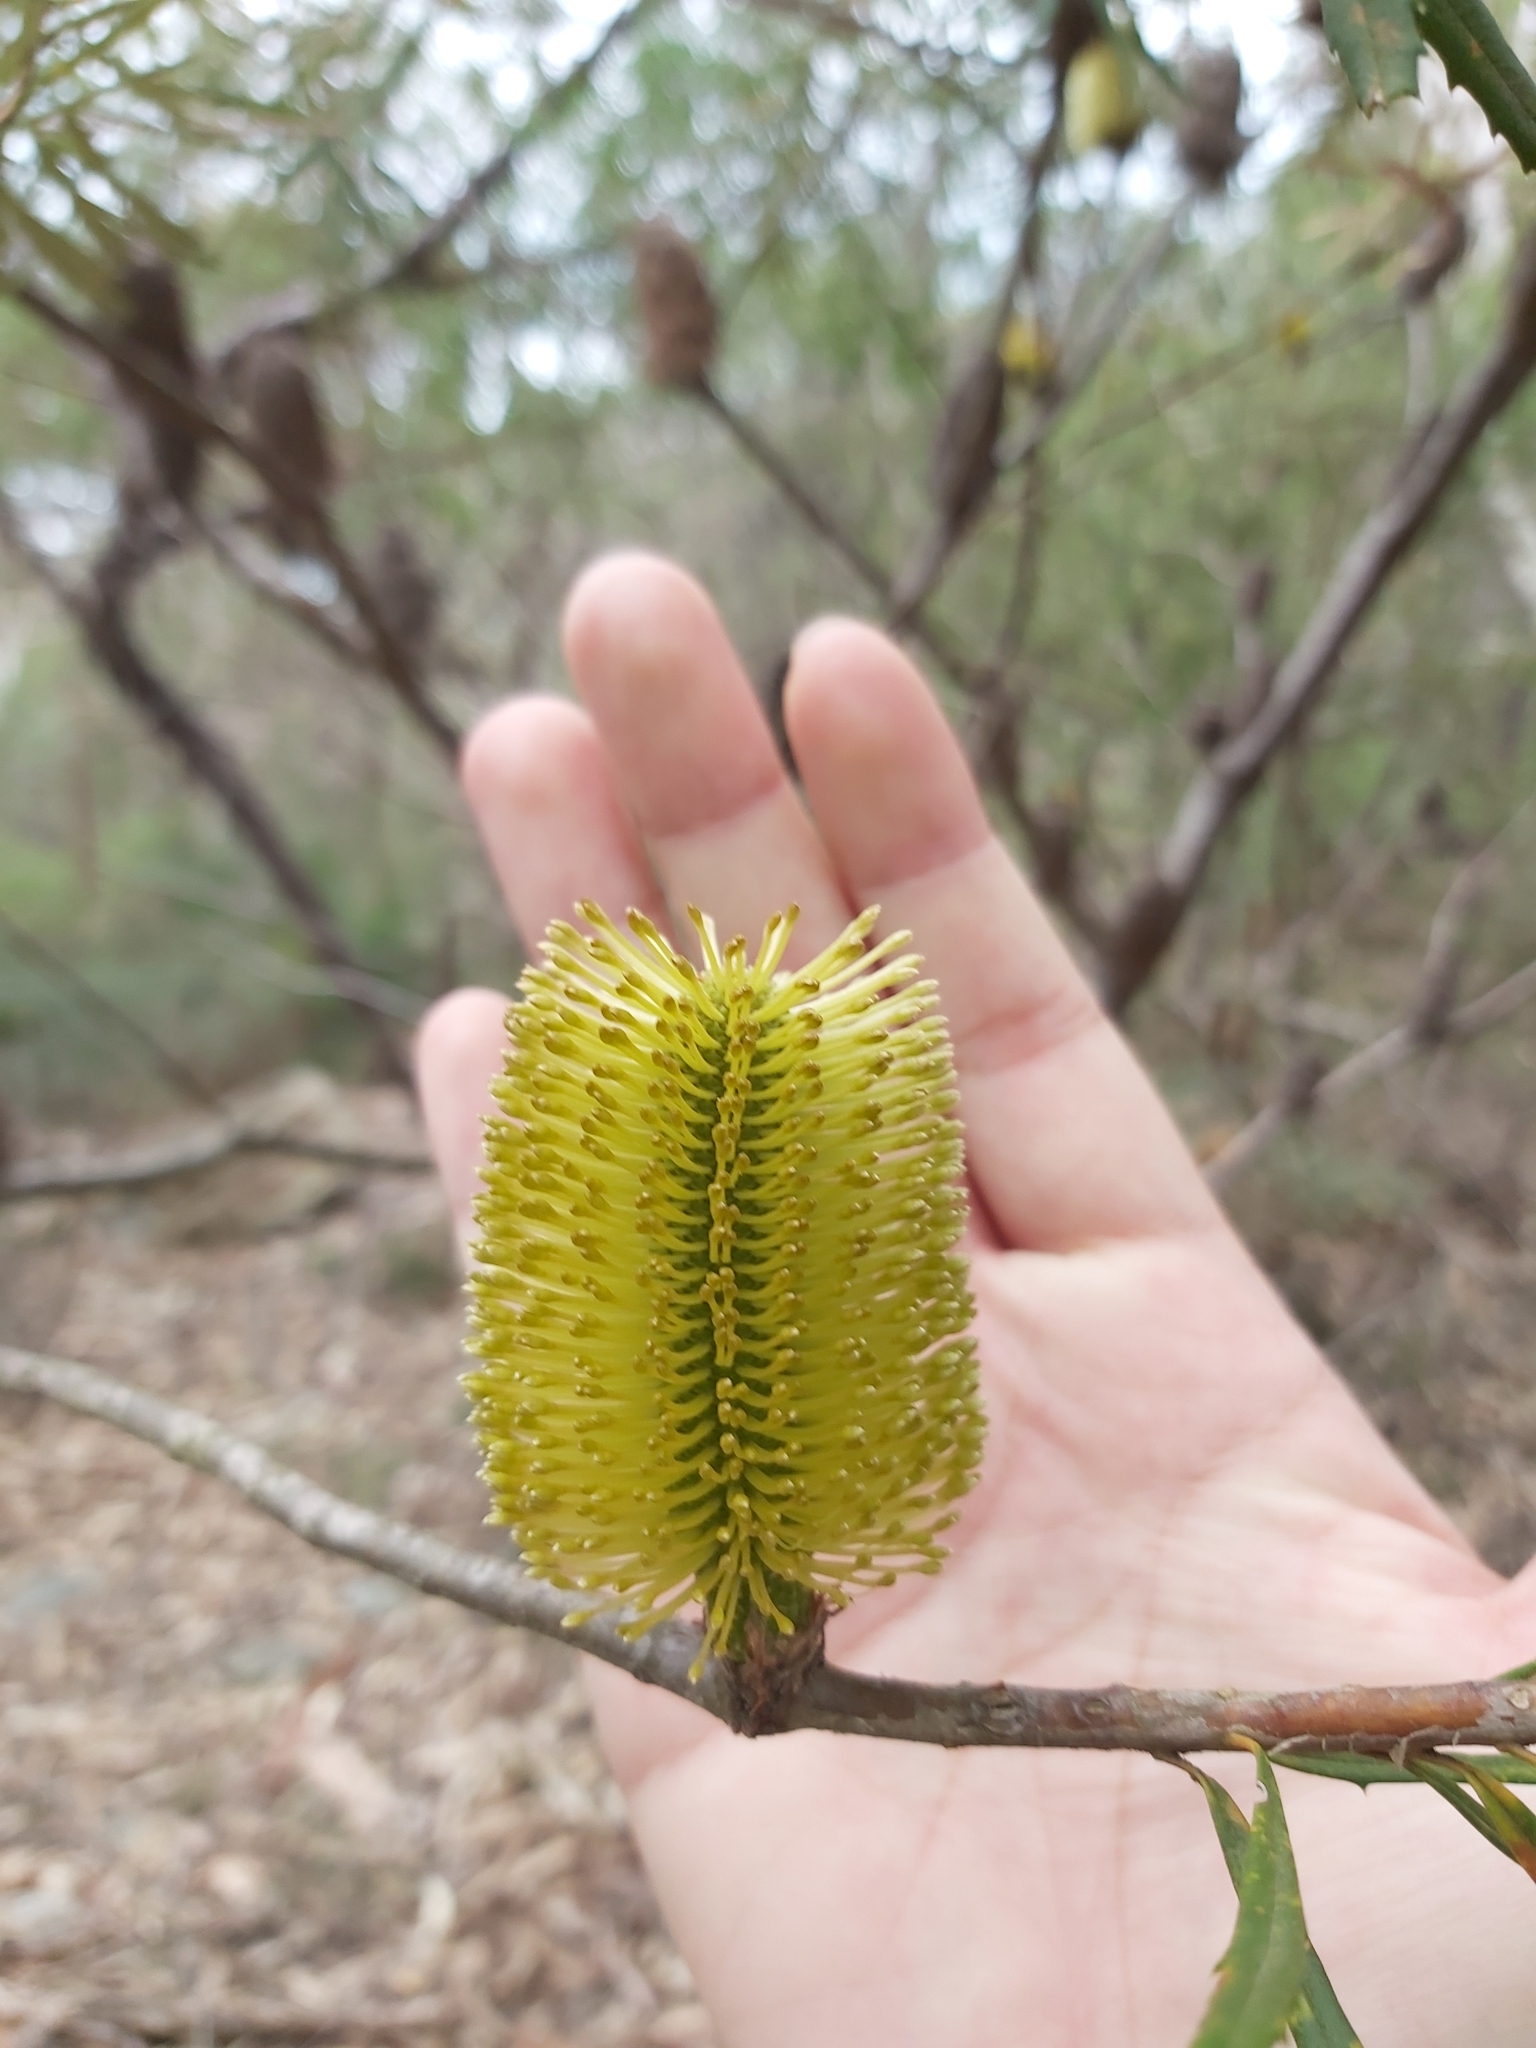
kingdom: Plantae
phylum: Tracheophyta
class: Magnoliopsida
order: Proteales
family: Proteaceae
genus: Banksia
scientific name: Banksia marginata
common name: Silver banksia
